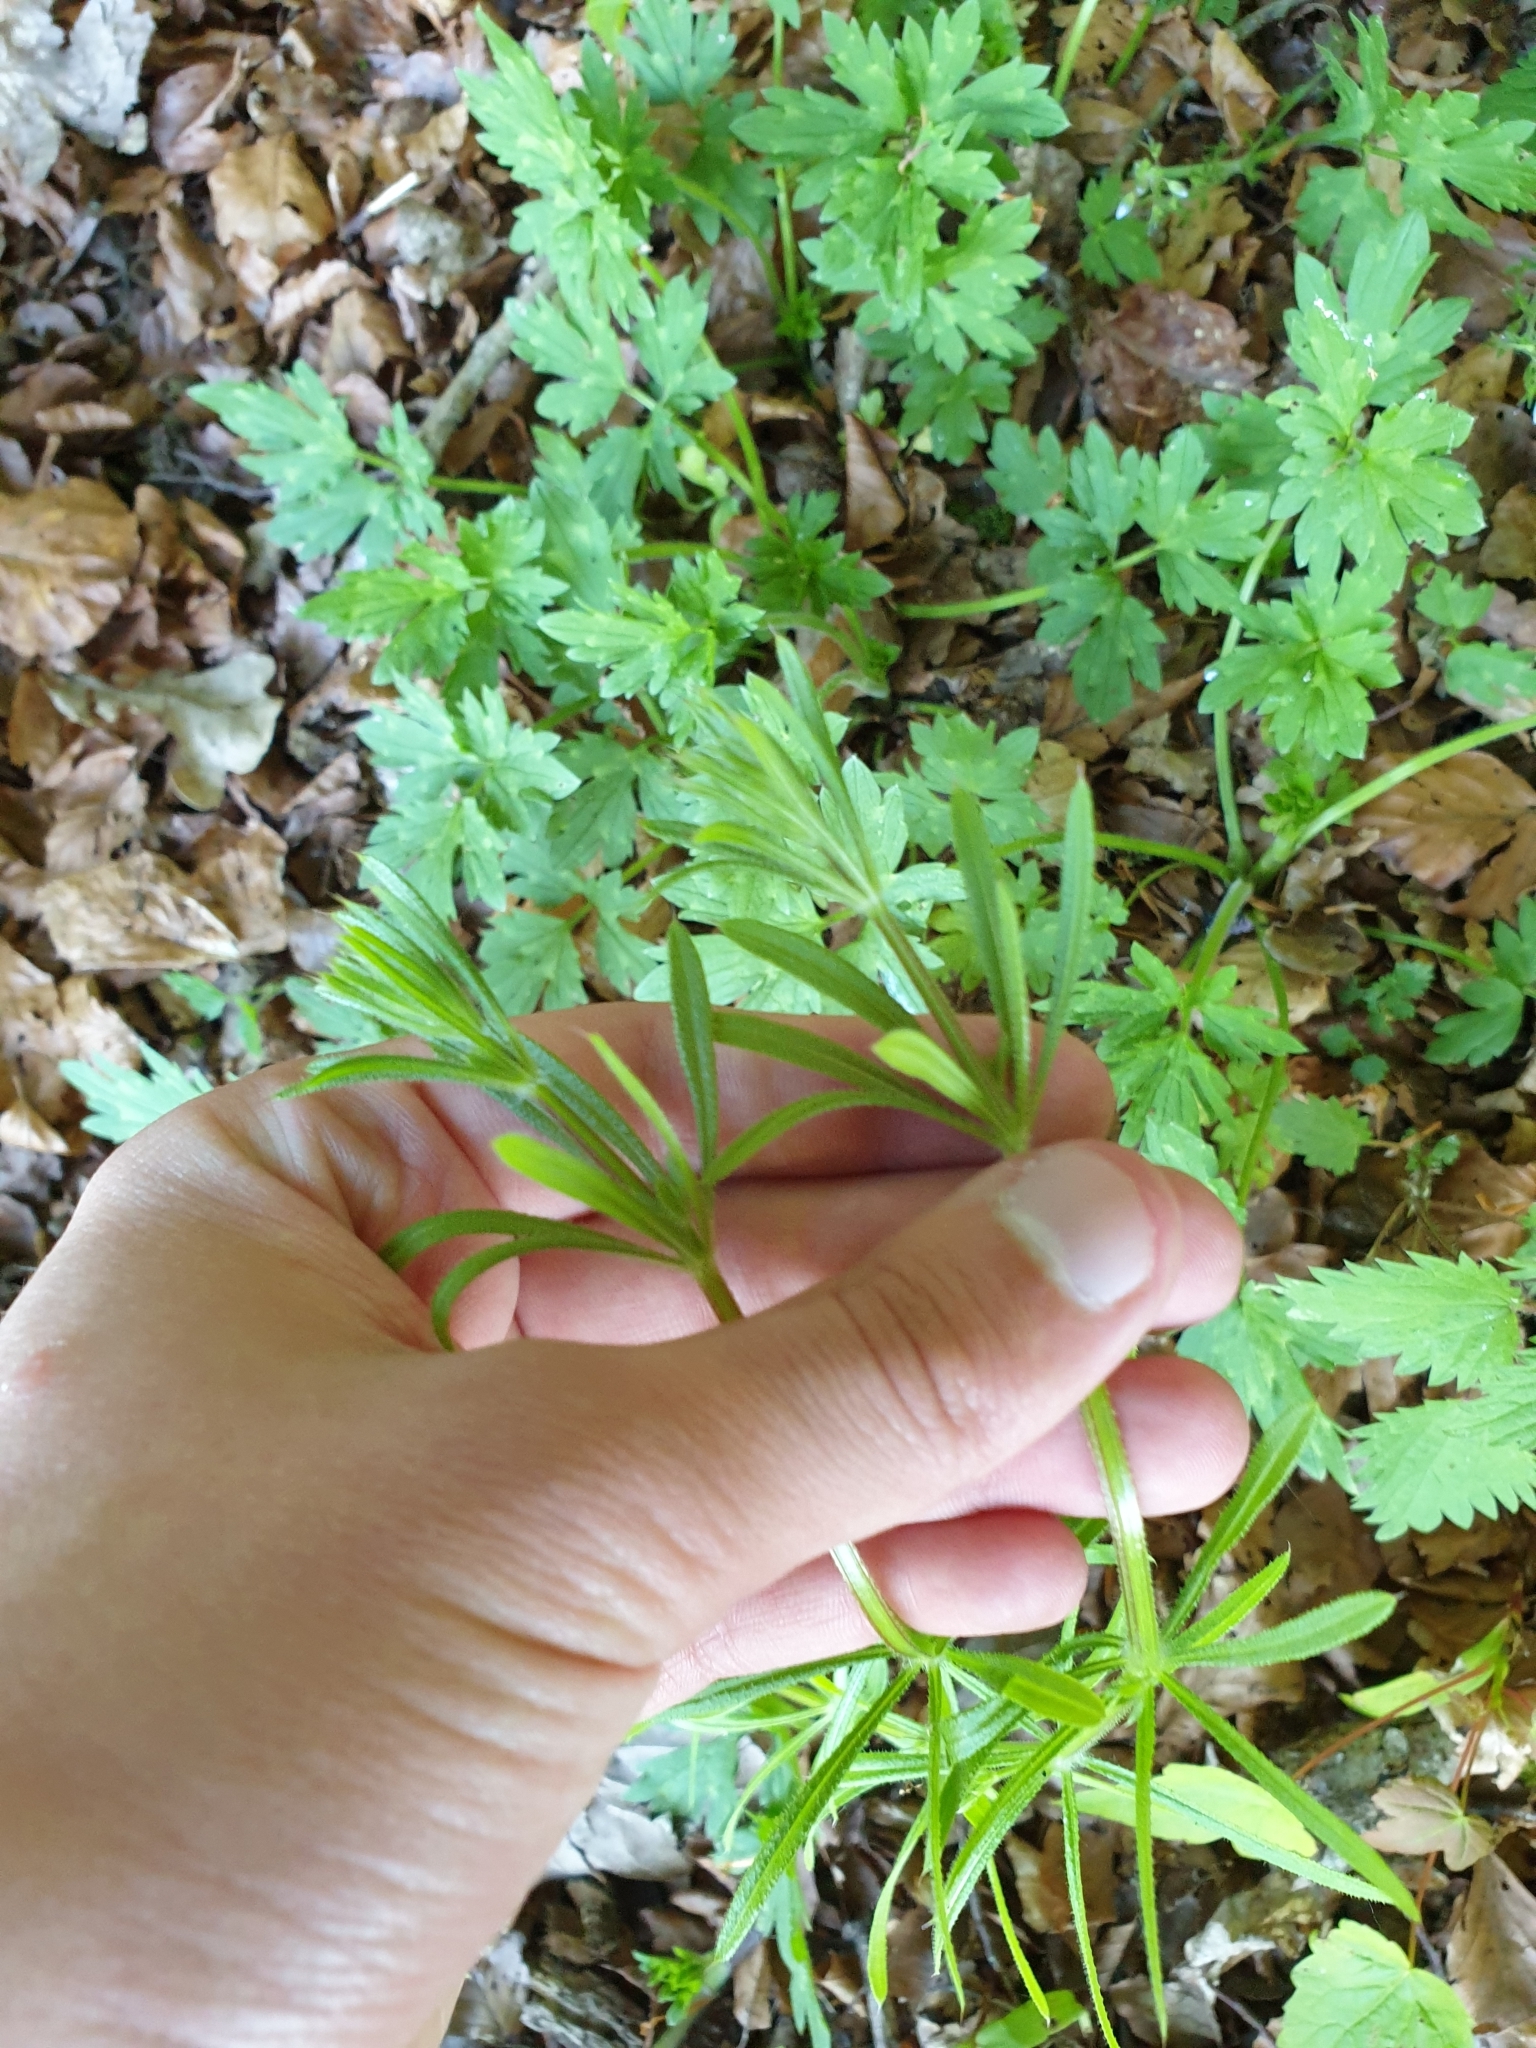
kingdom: Plantae
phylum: Tracheophyta
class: Magnoliopsida
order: Gentianales
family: Rubiaceae
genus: Galium
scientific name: Galium aparine
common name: Cleavers
